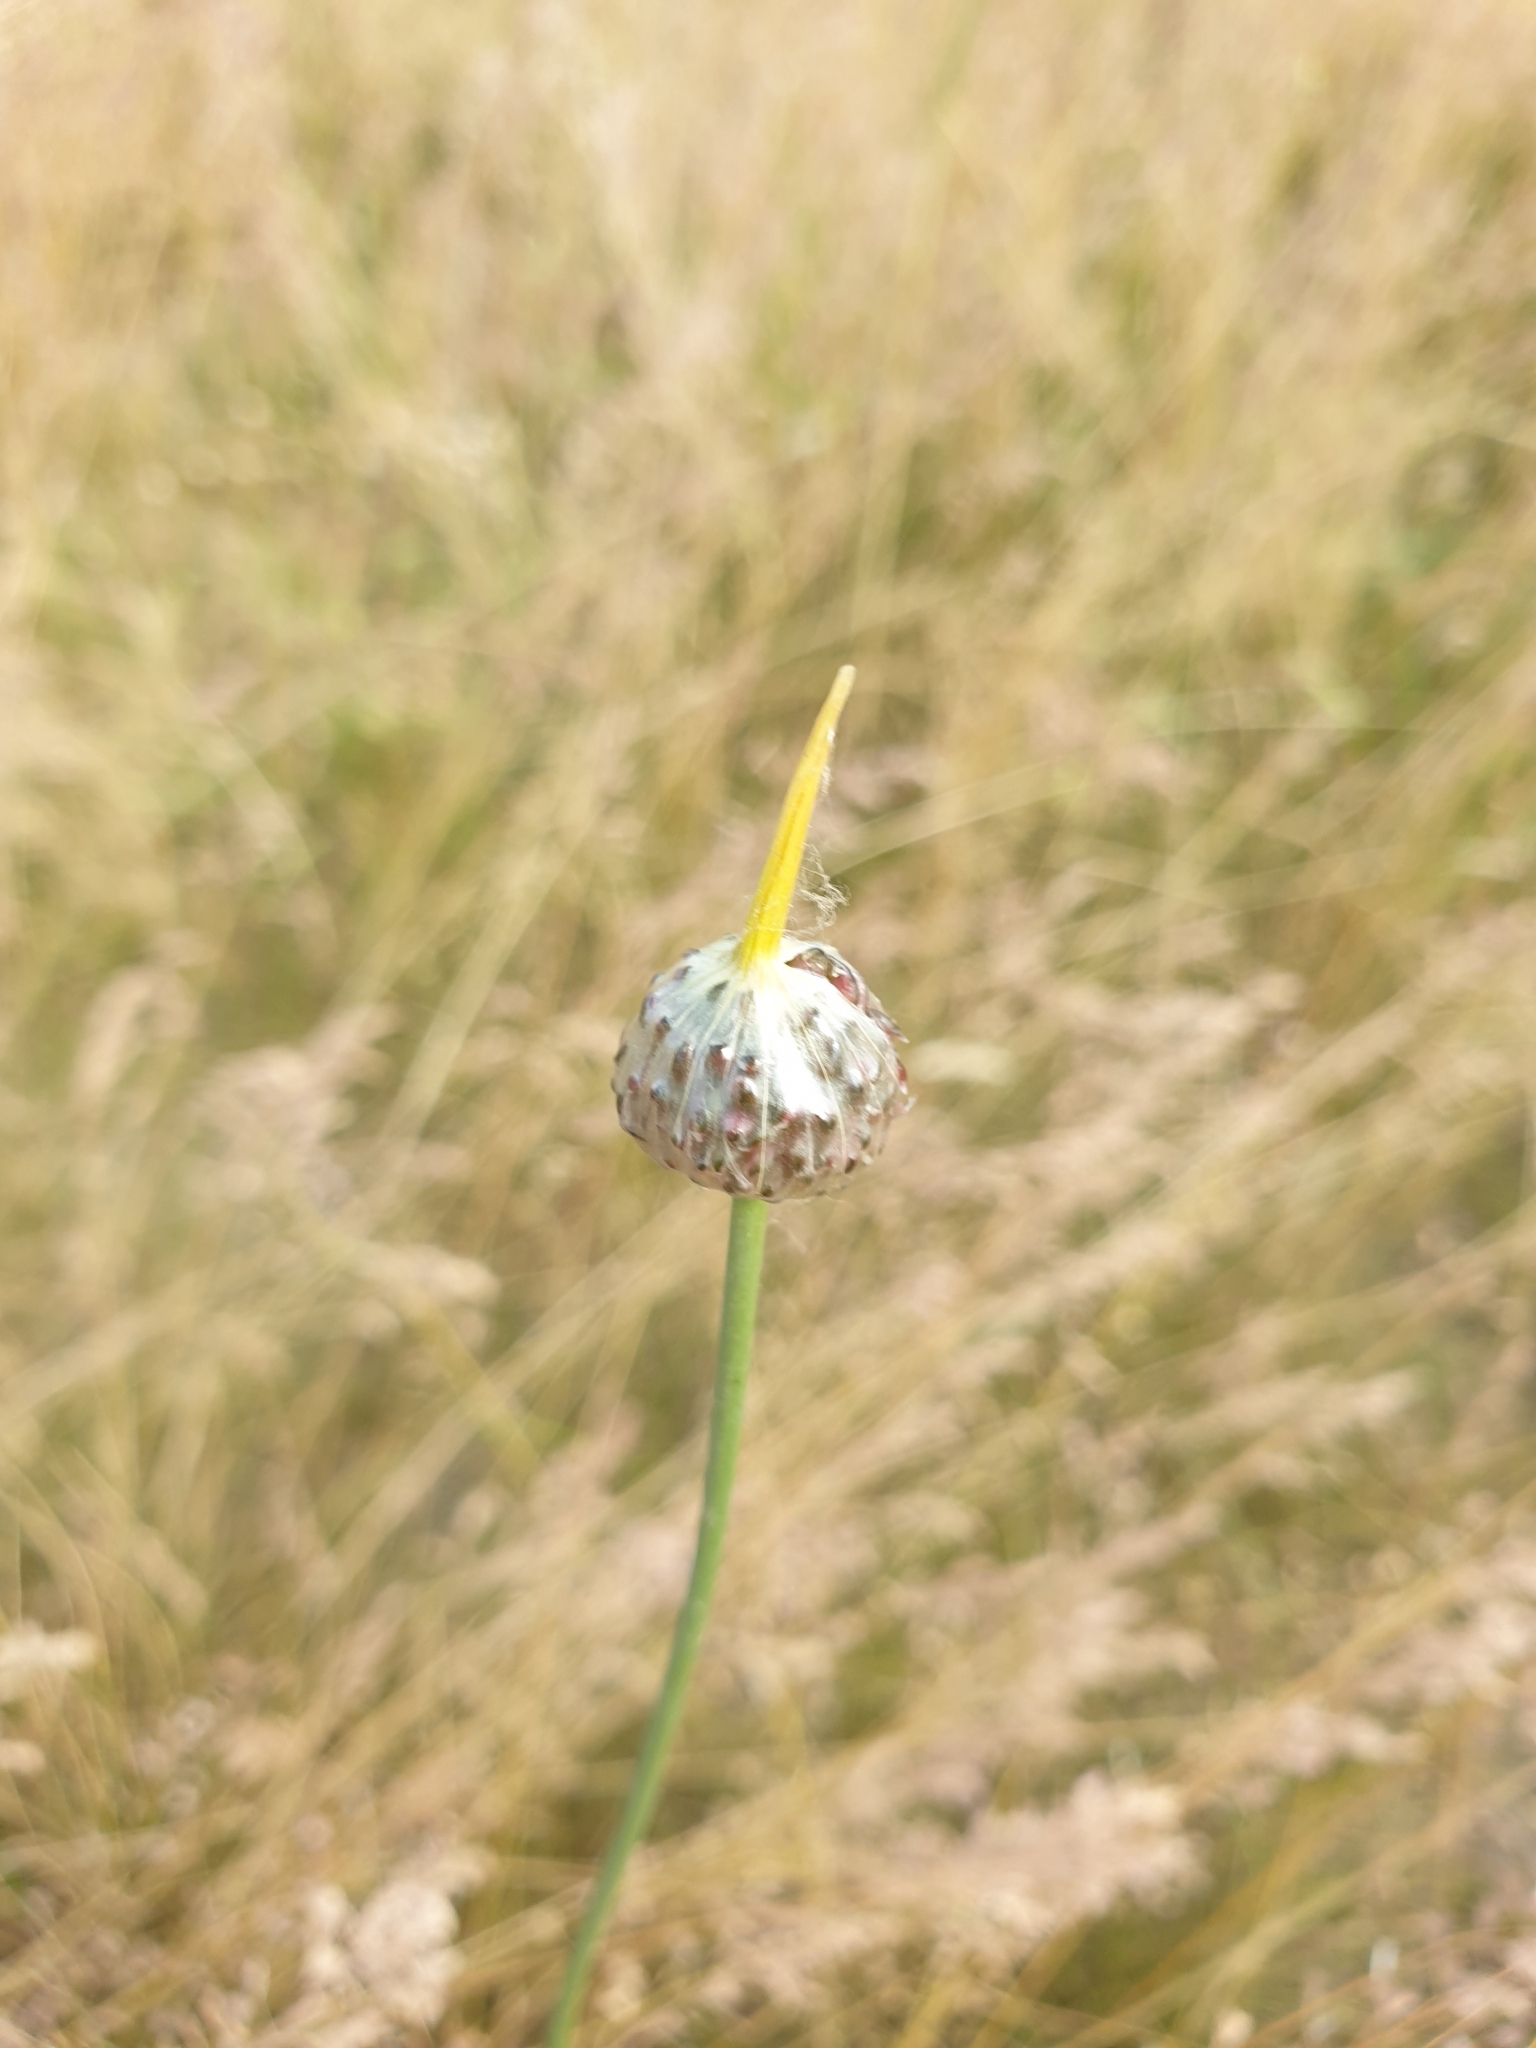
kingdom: Plantae
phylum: Tracheophyta
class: Liliopsida
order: Asparagales
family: Amaryllidaceae
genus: Allium
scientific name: Allium vineale
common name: Crow garlic
